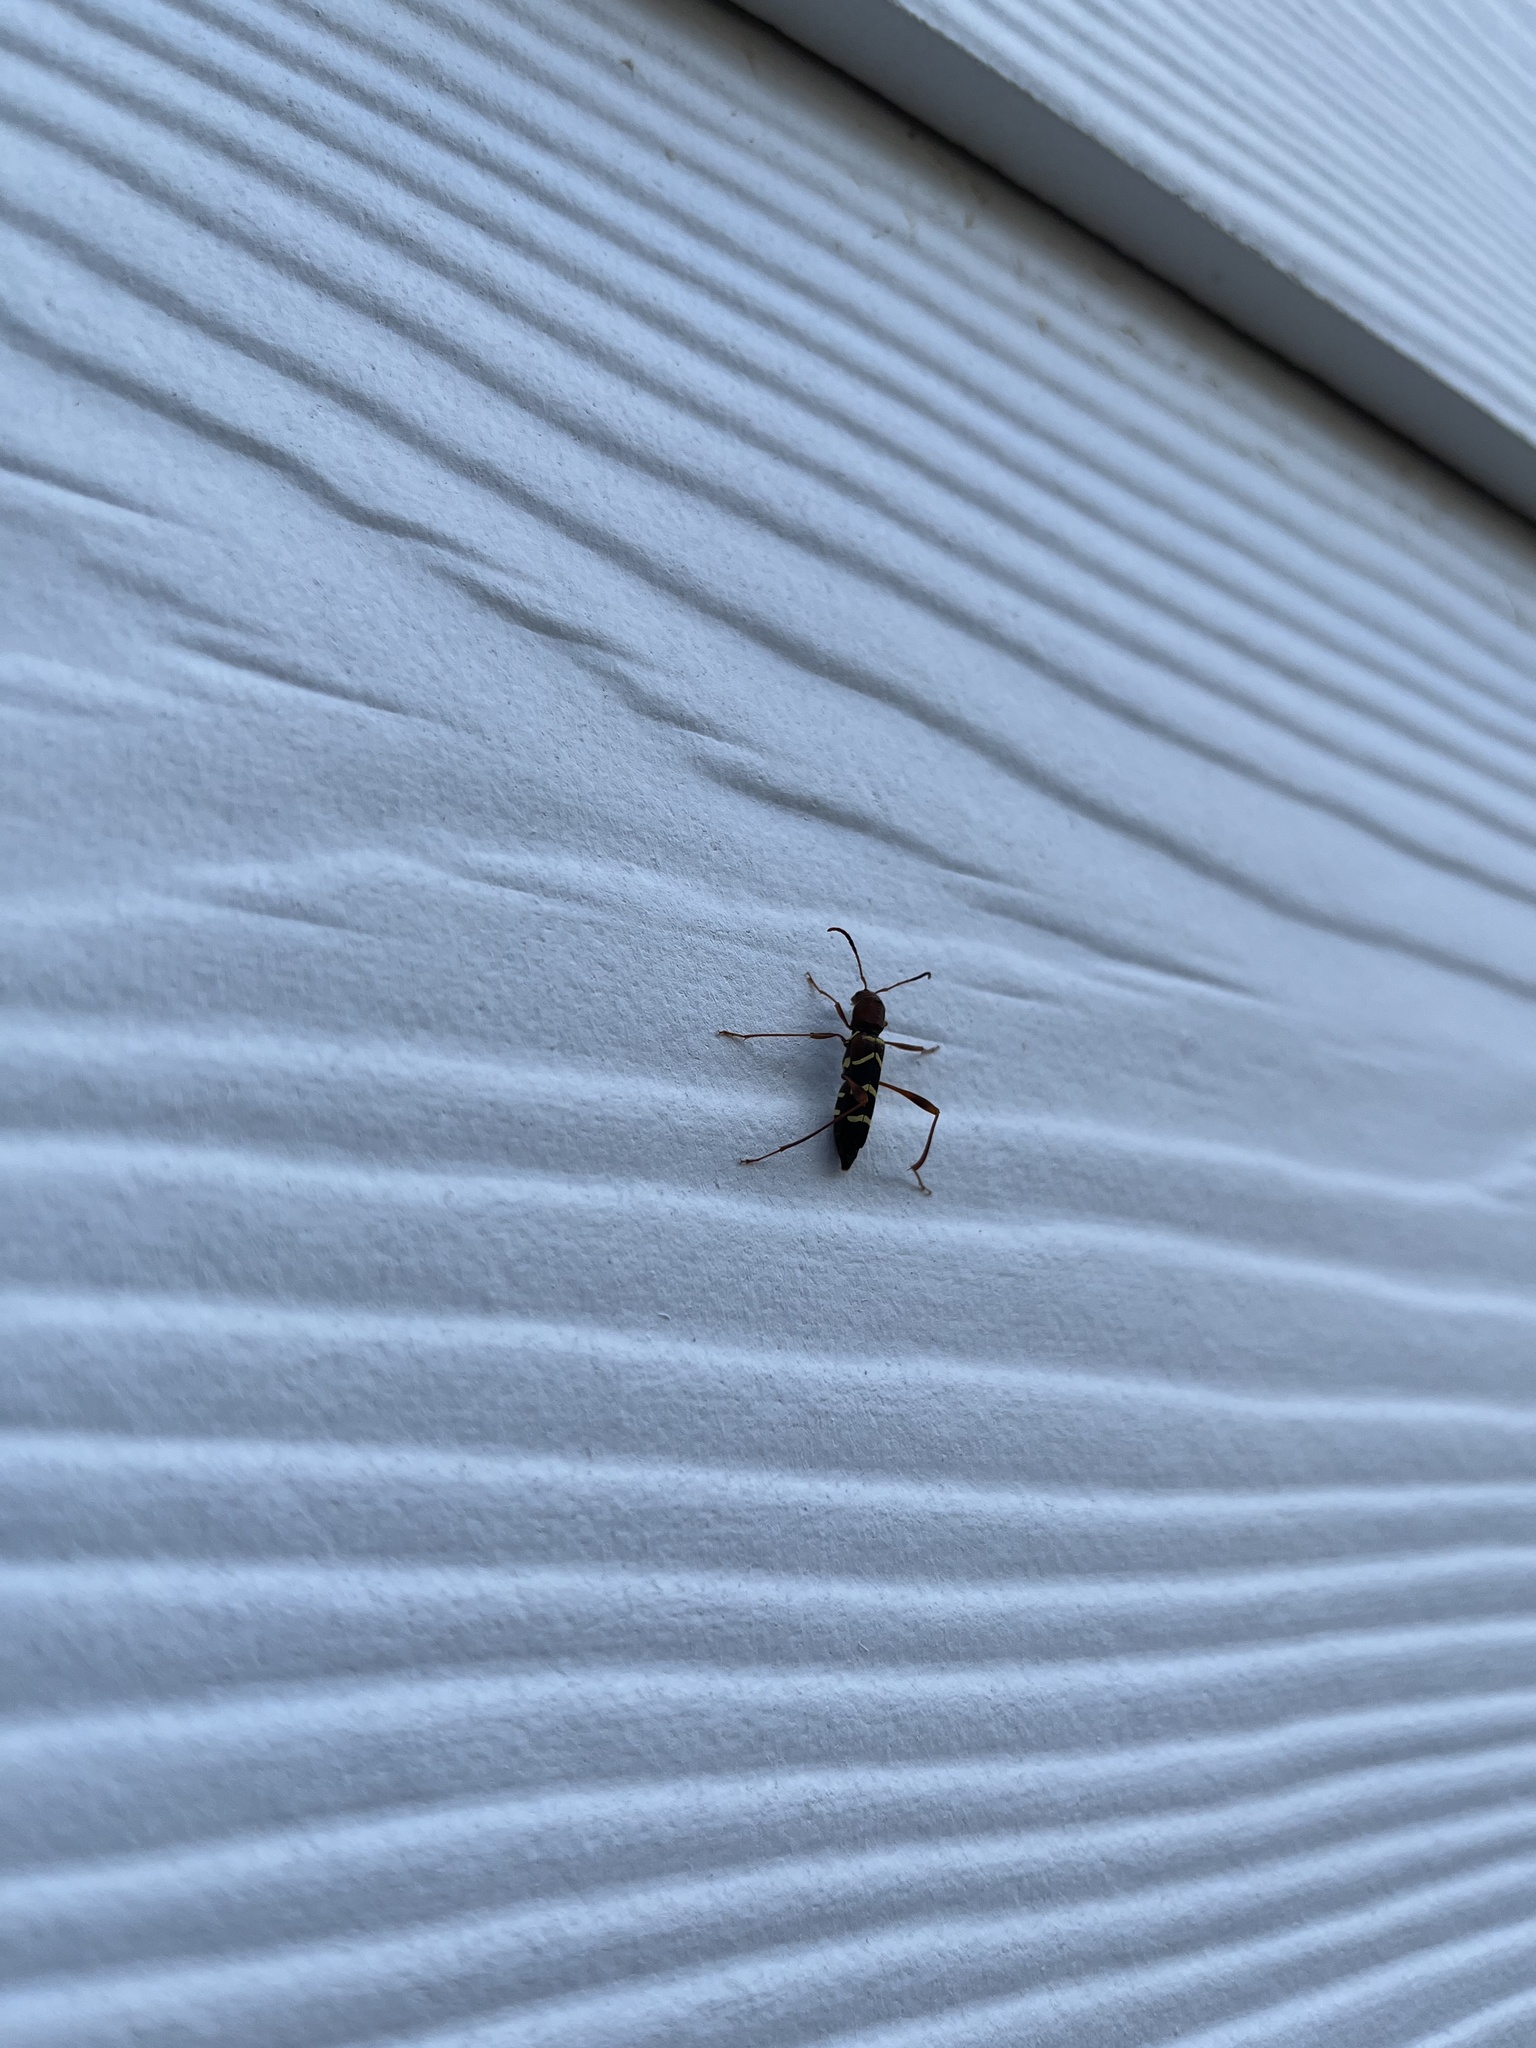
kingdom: Animalia
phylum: Arthropoda
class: Insecta
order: Coleoptera
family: Cerambycidae
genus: Neoclytus
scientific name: Neoclytus acuminatus
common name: Read-headed ash borer
